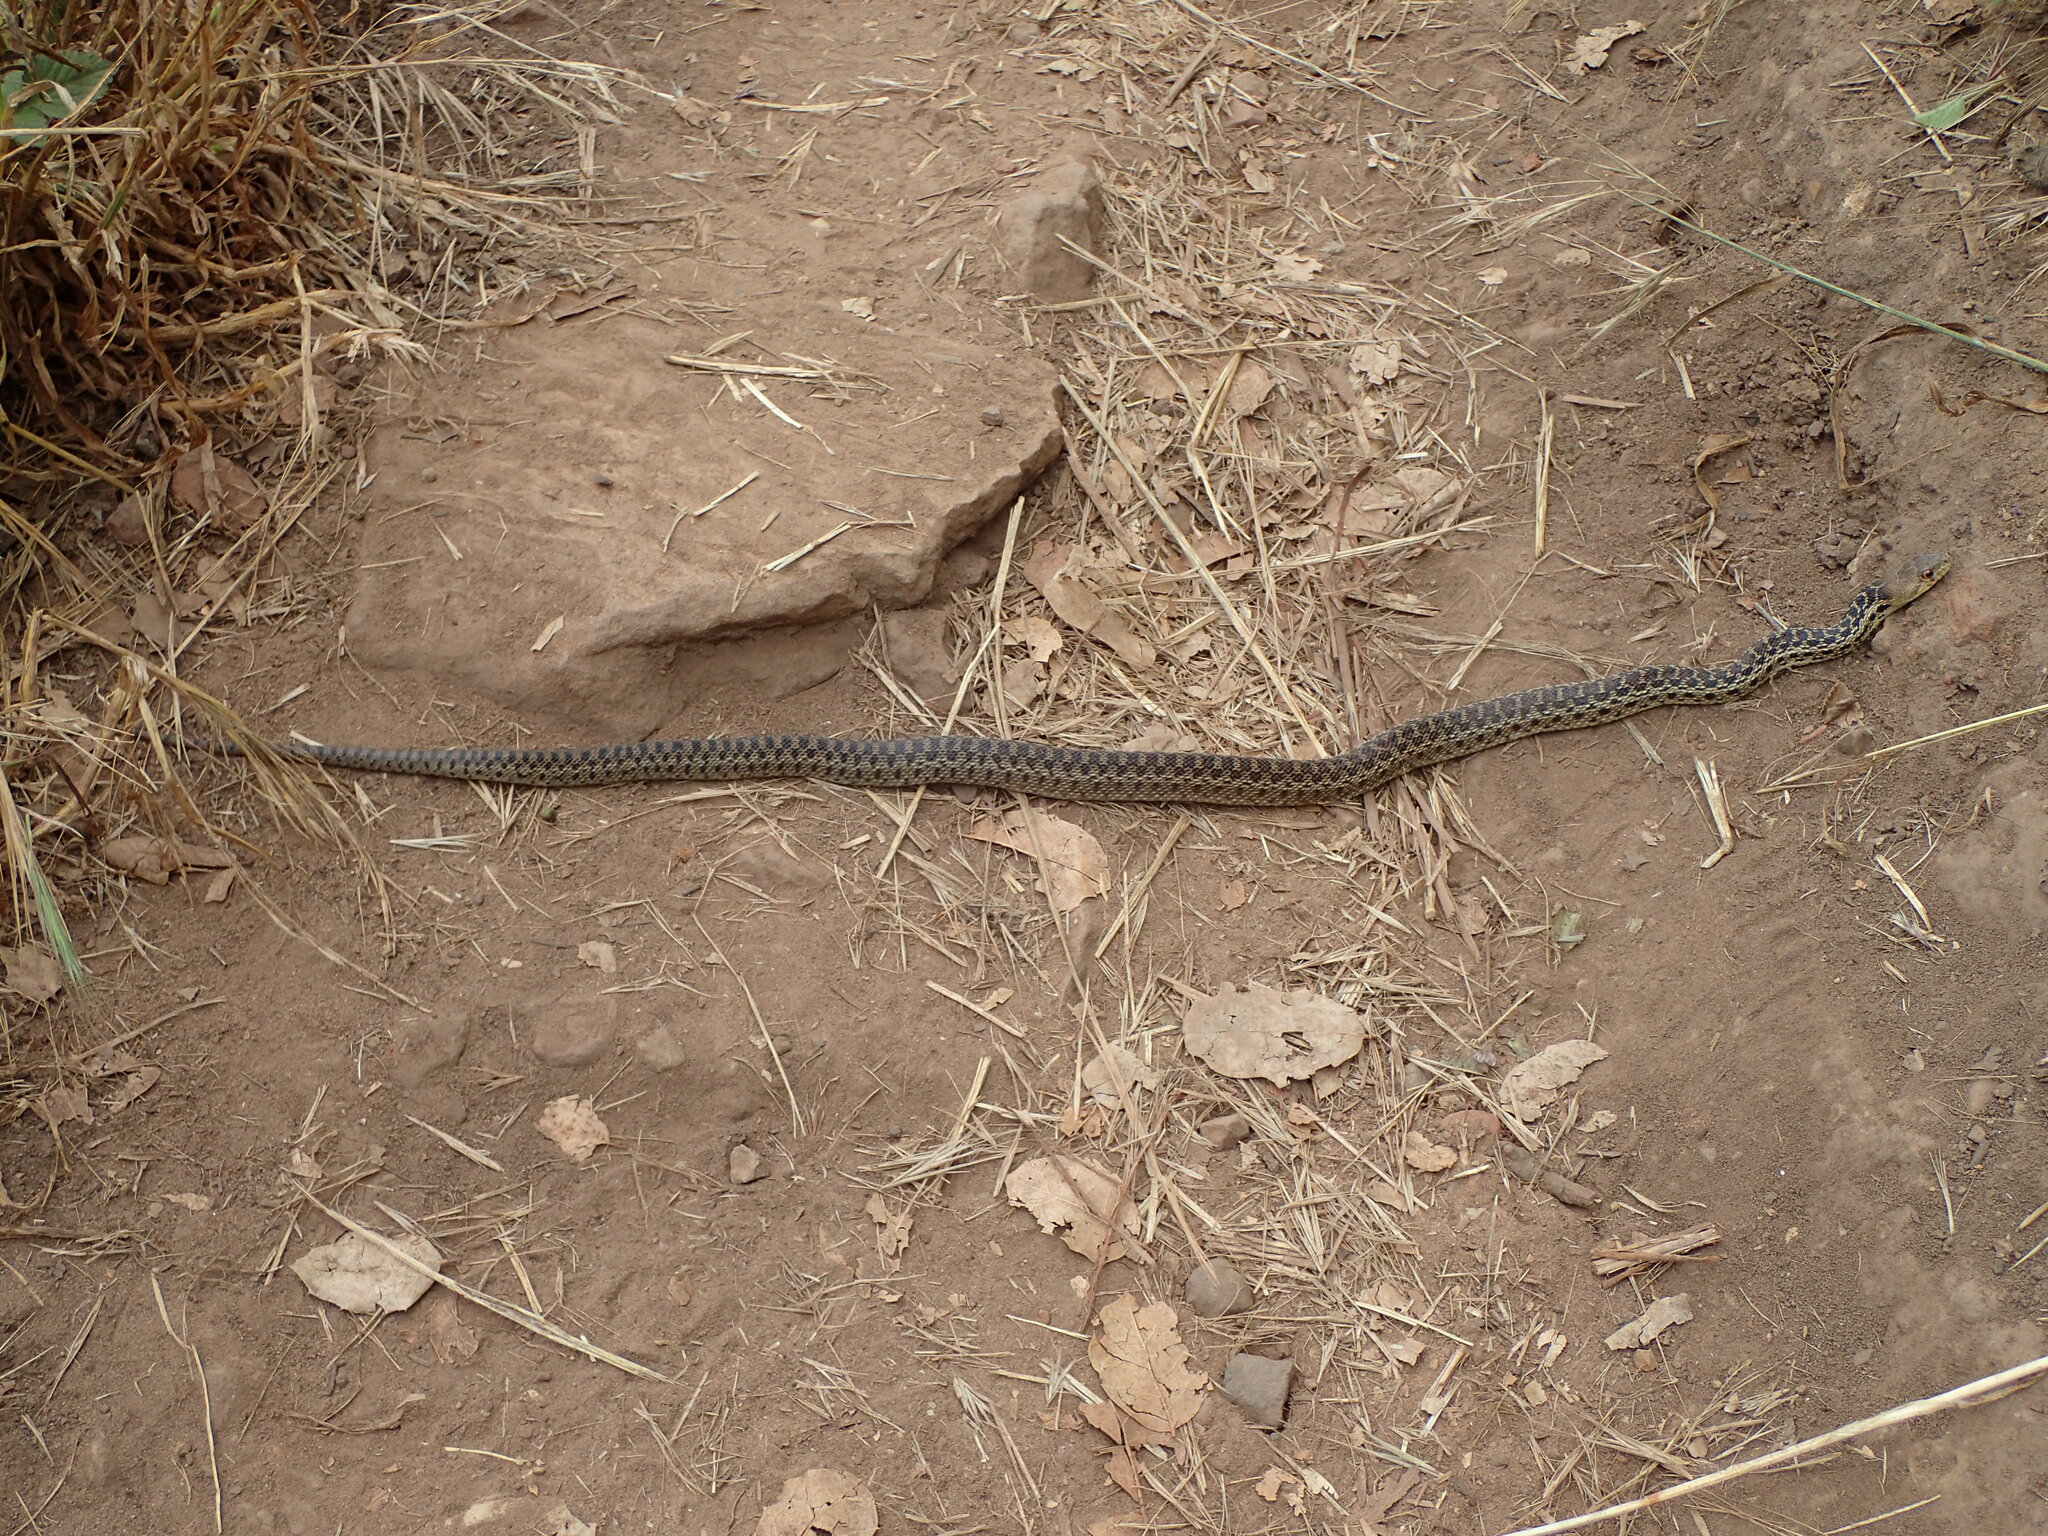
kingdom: Animalia
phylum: Chordata
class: Squamata
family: Colubridae
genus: Pituophis
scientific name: Pituophis catenifer
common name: Gopher snake
